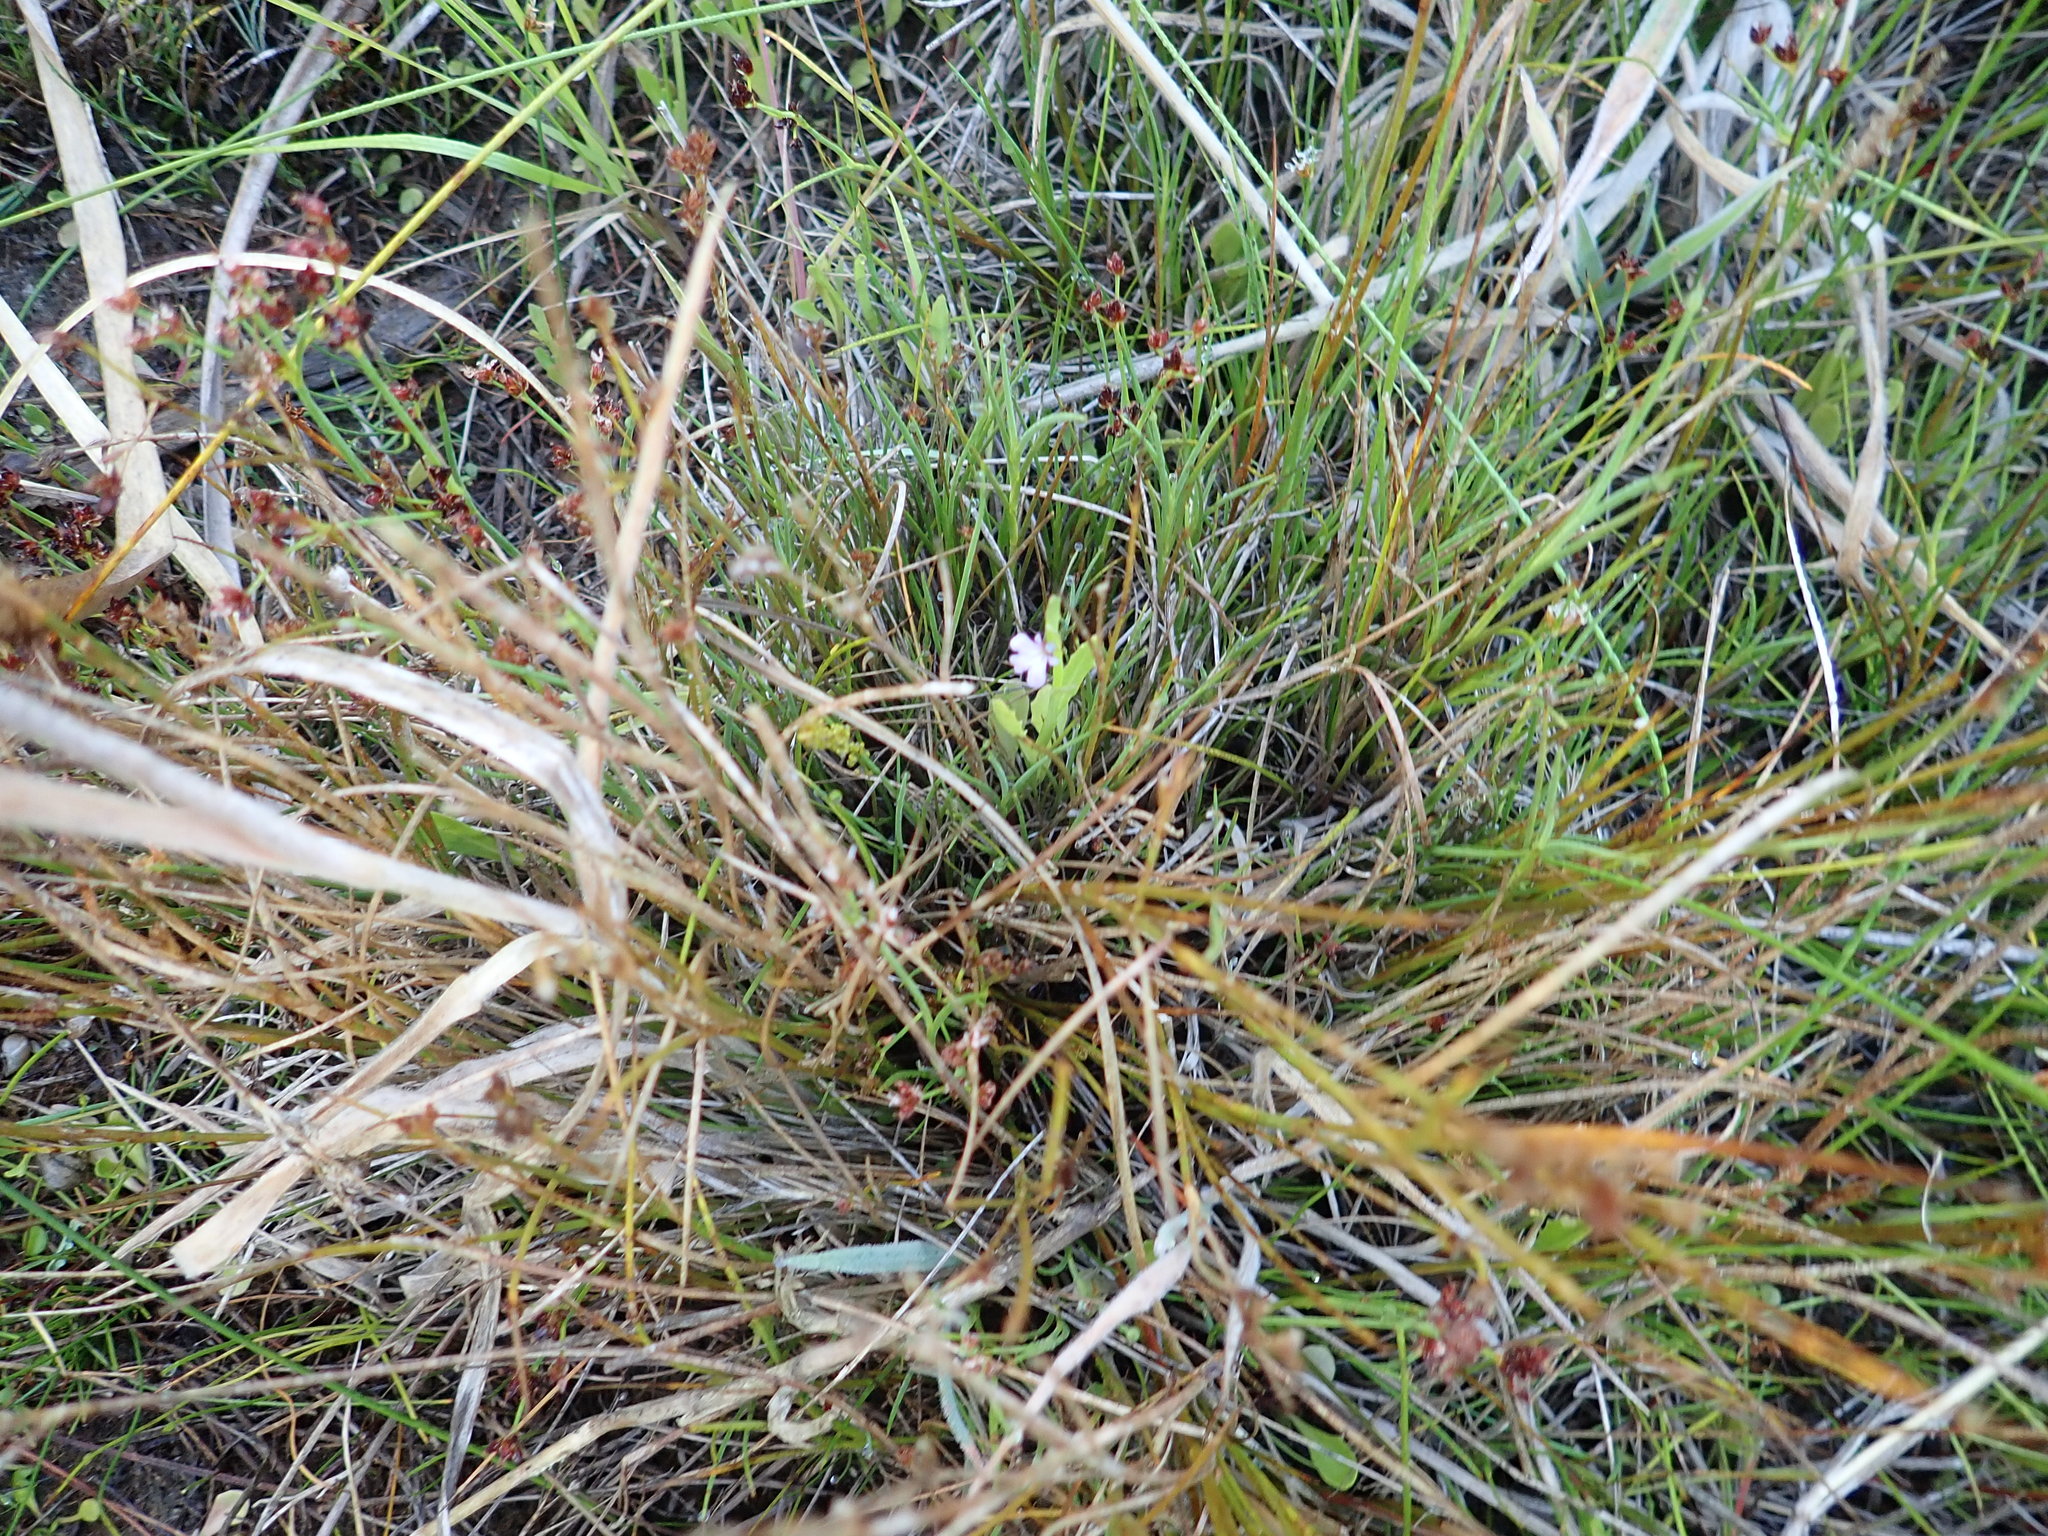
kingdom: Plantae
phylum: Tracheophyta
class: Magnoliopsida
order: Asterales
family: Campanulaceae
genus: Lobelia
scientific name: Lobelia anceps
